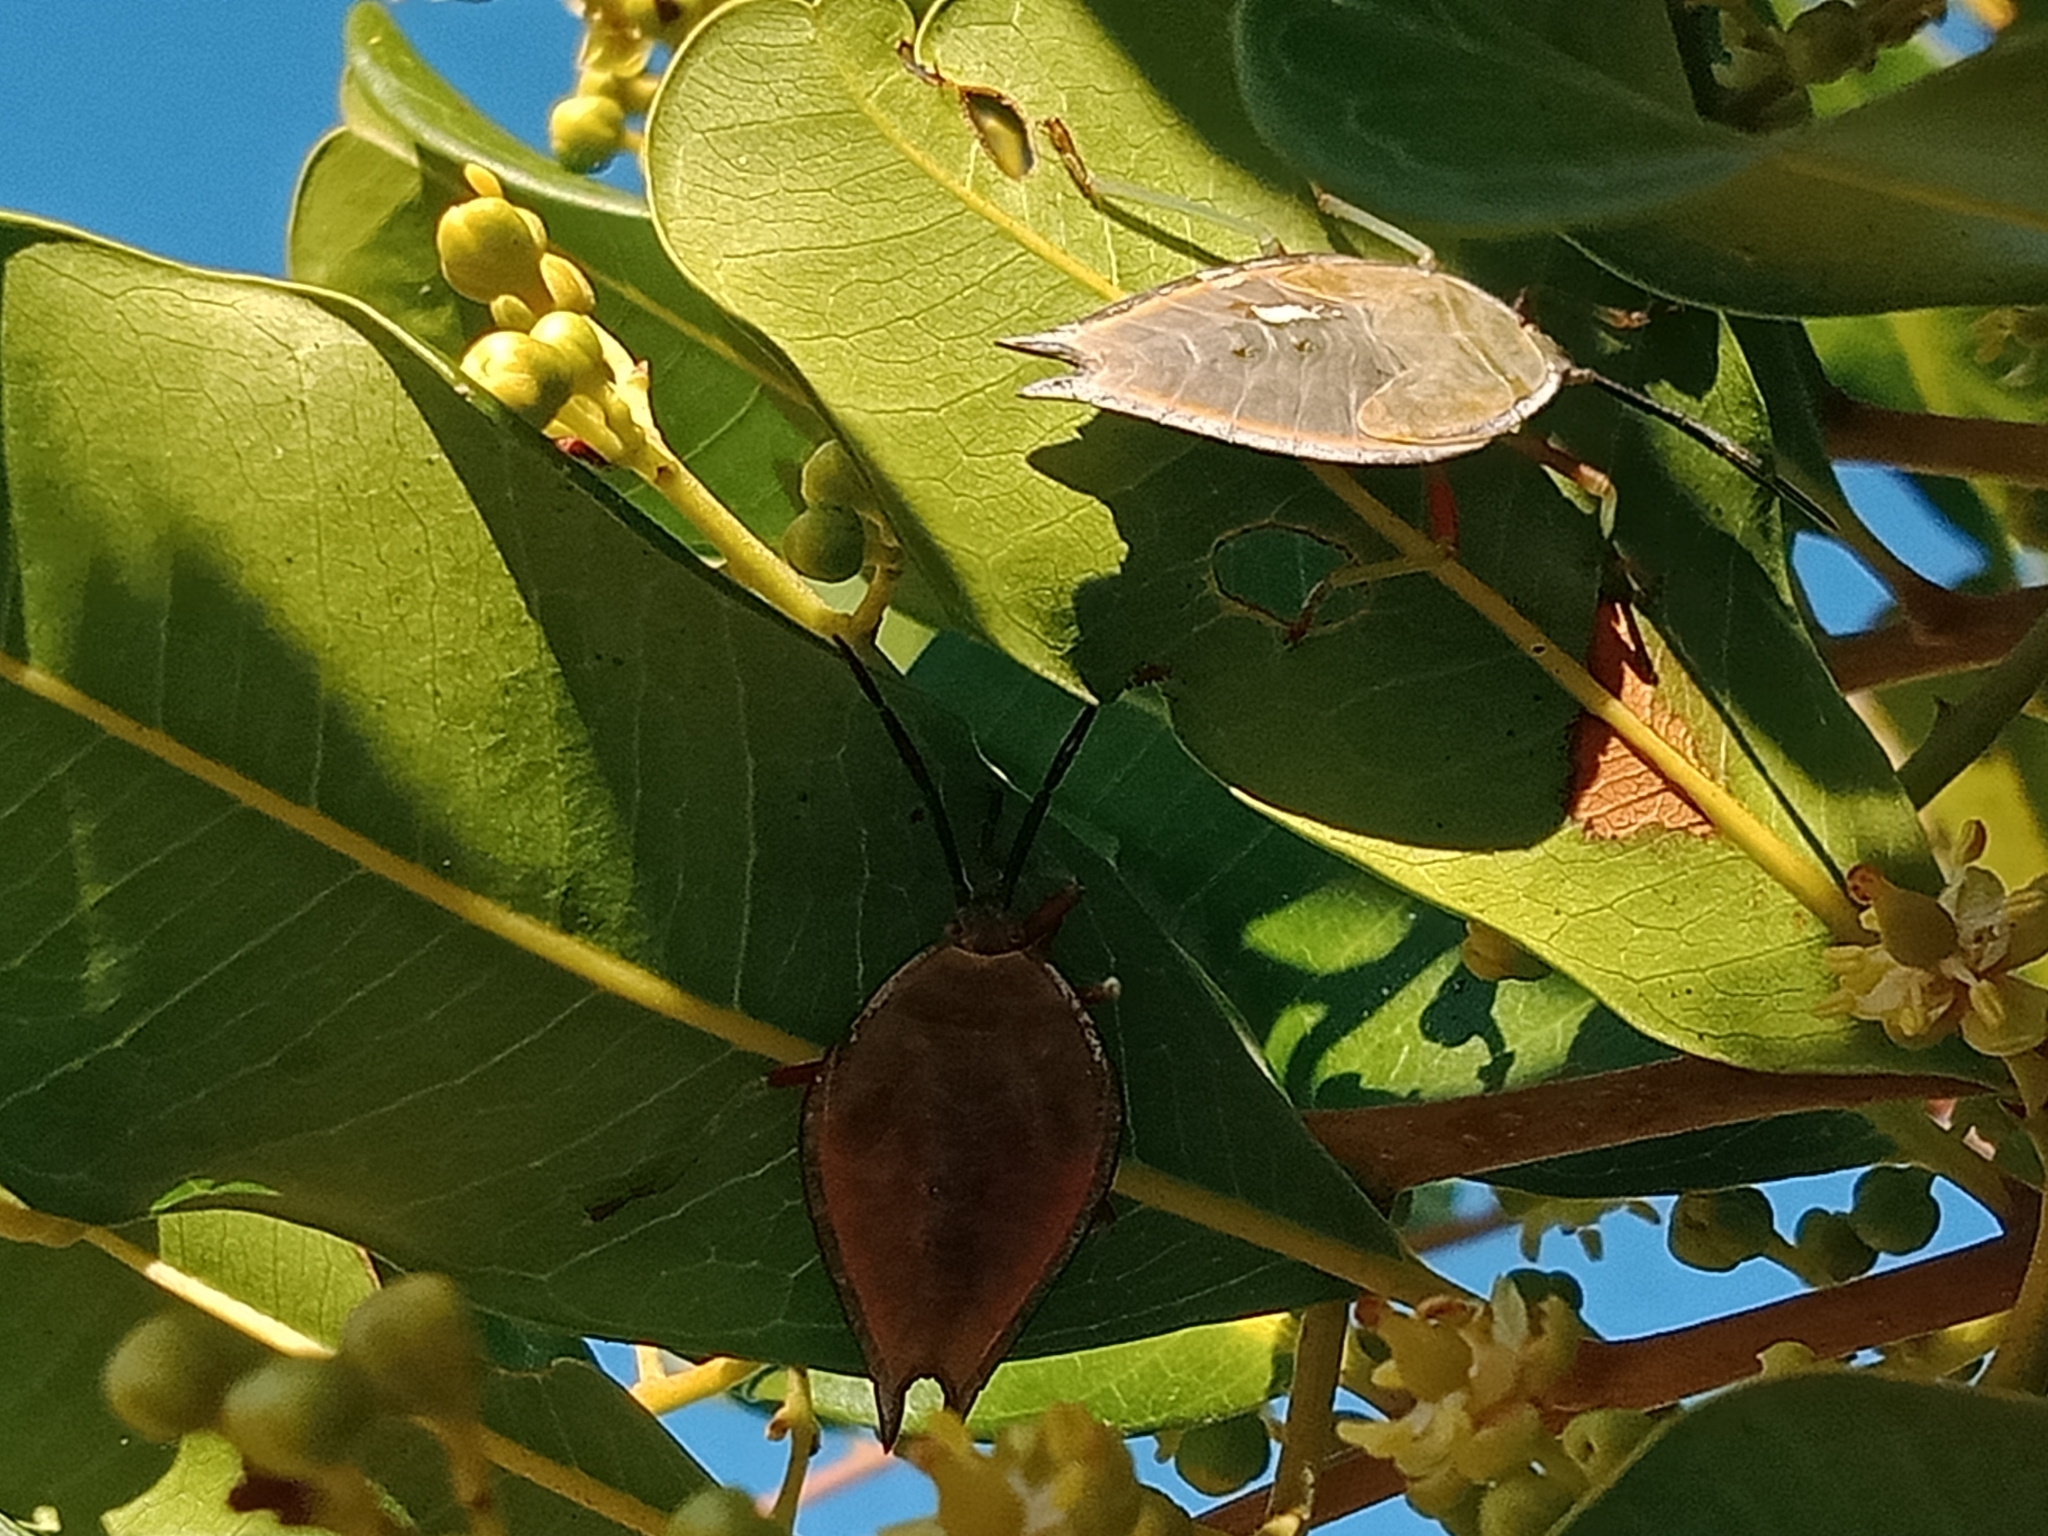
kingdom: Animalia
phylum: Arthropoda
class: Insecta
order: Hemiptera
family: Tessaratomidae
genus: Lyramorpha
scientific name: Lyramorpha rosea
